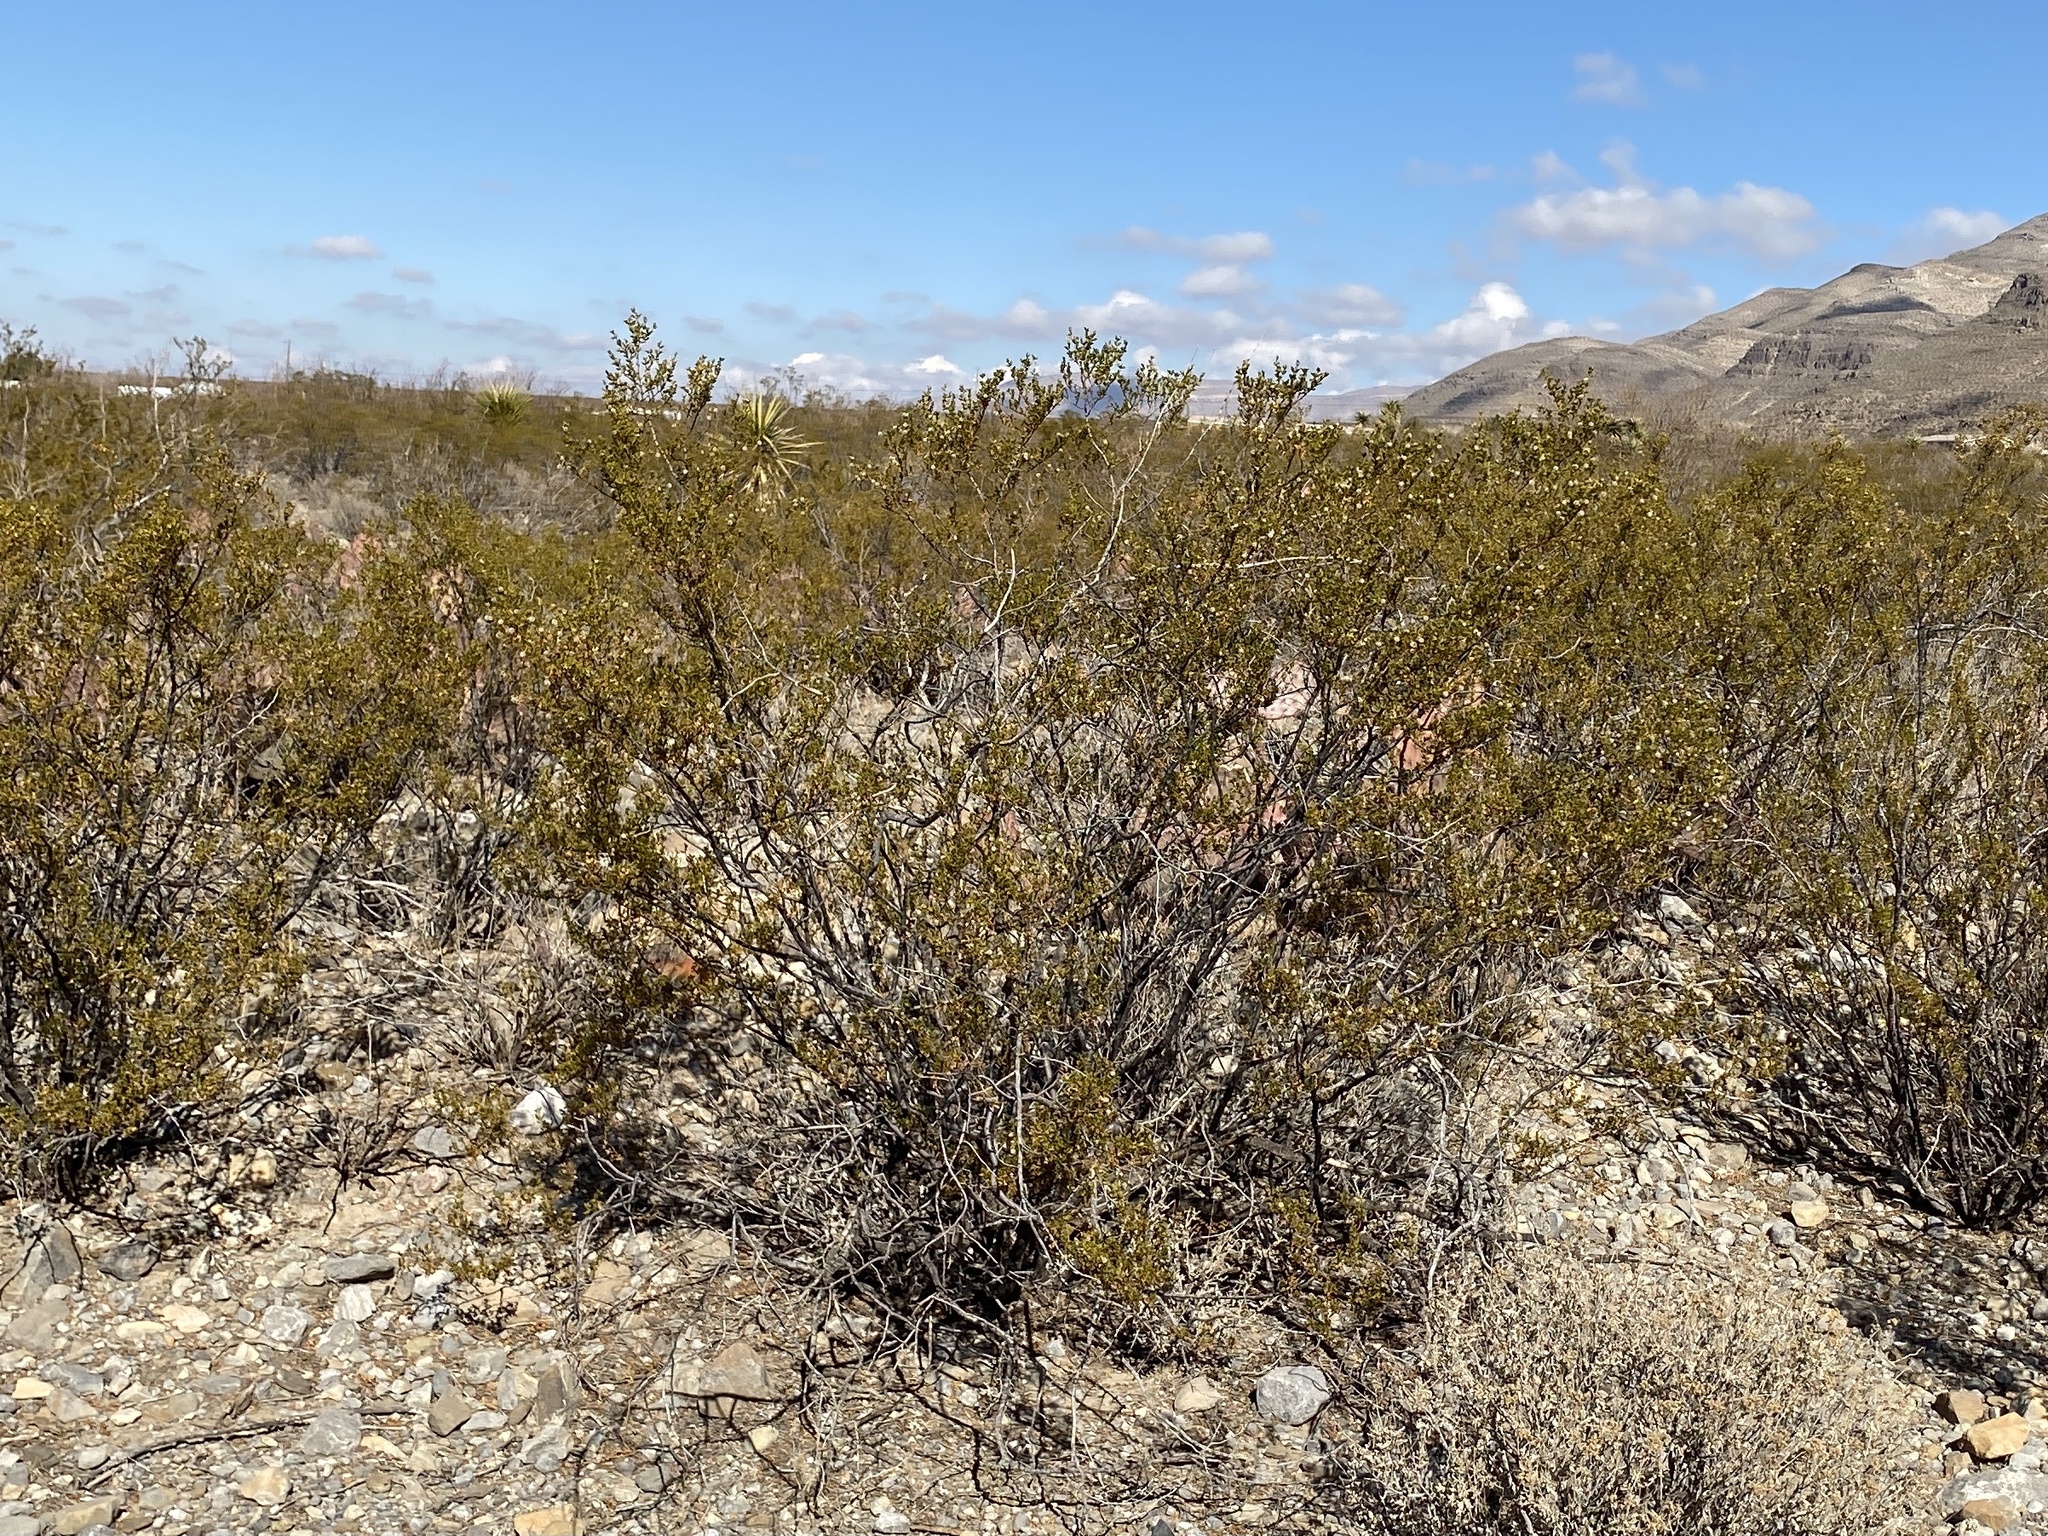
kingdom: Plantae
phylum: Tracheophyta
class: Magnoliopsida
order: Zygophyllales
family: Zygophyllaceae
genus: Larrea
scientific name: Larrea tridentata
